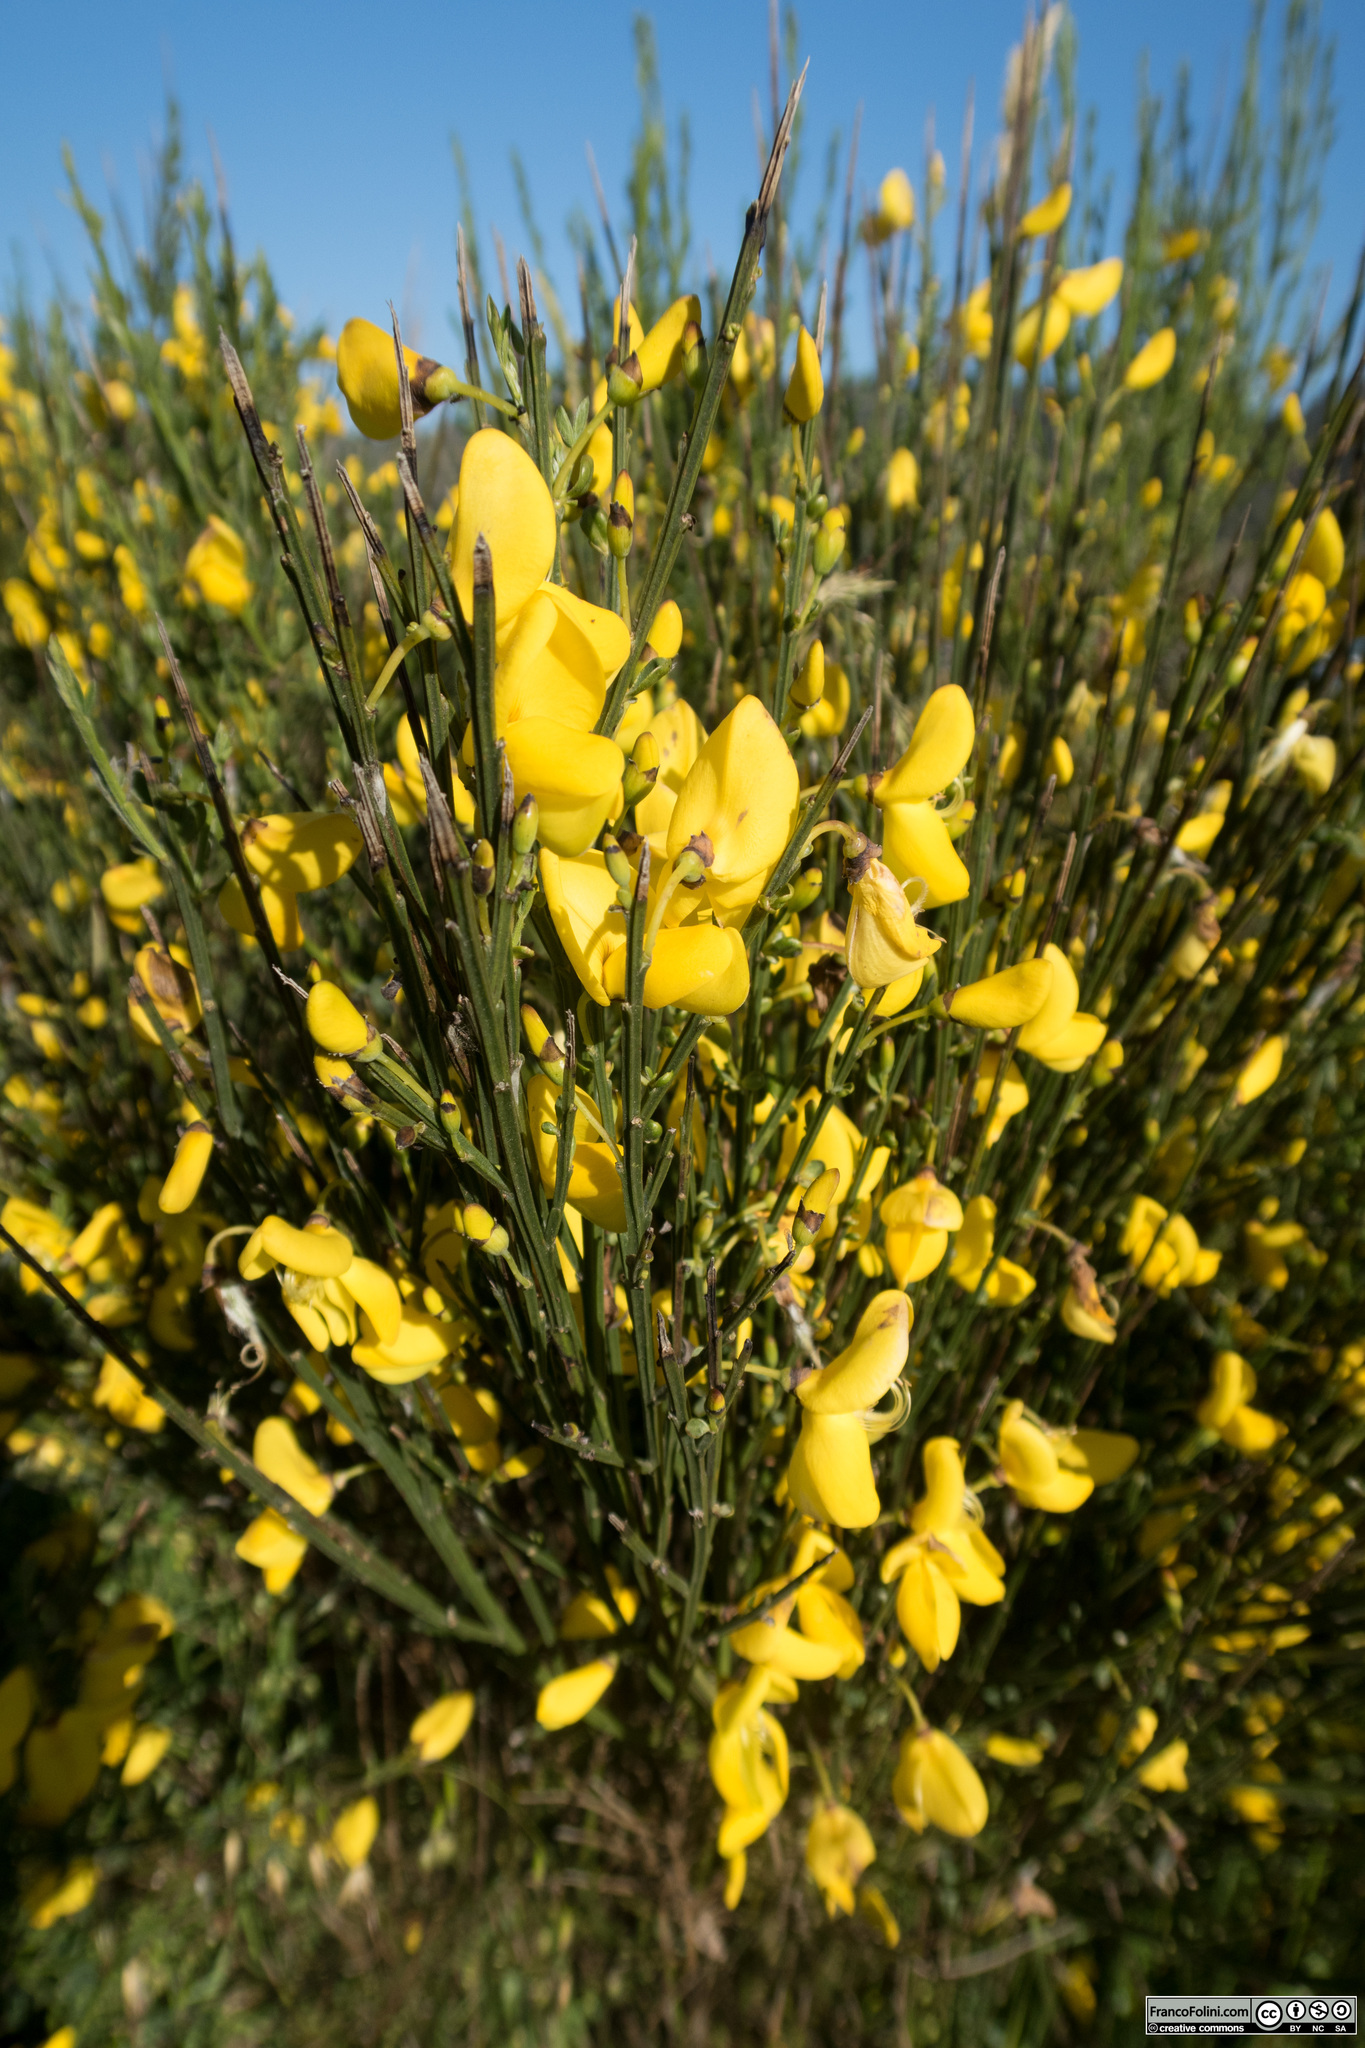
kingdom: Plantae
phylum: Tracheophyta
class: Magnoliopsida
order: Fabales
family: Fabaceae
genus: Cytisus
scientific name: Cytisus scoparius
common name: Scotch broom
